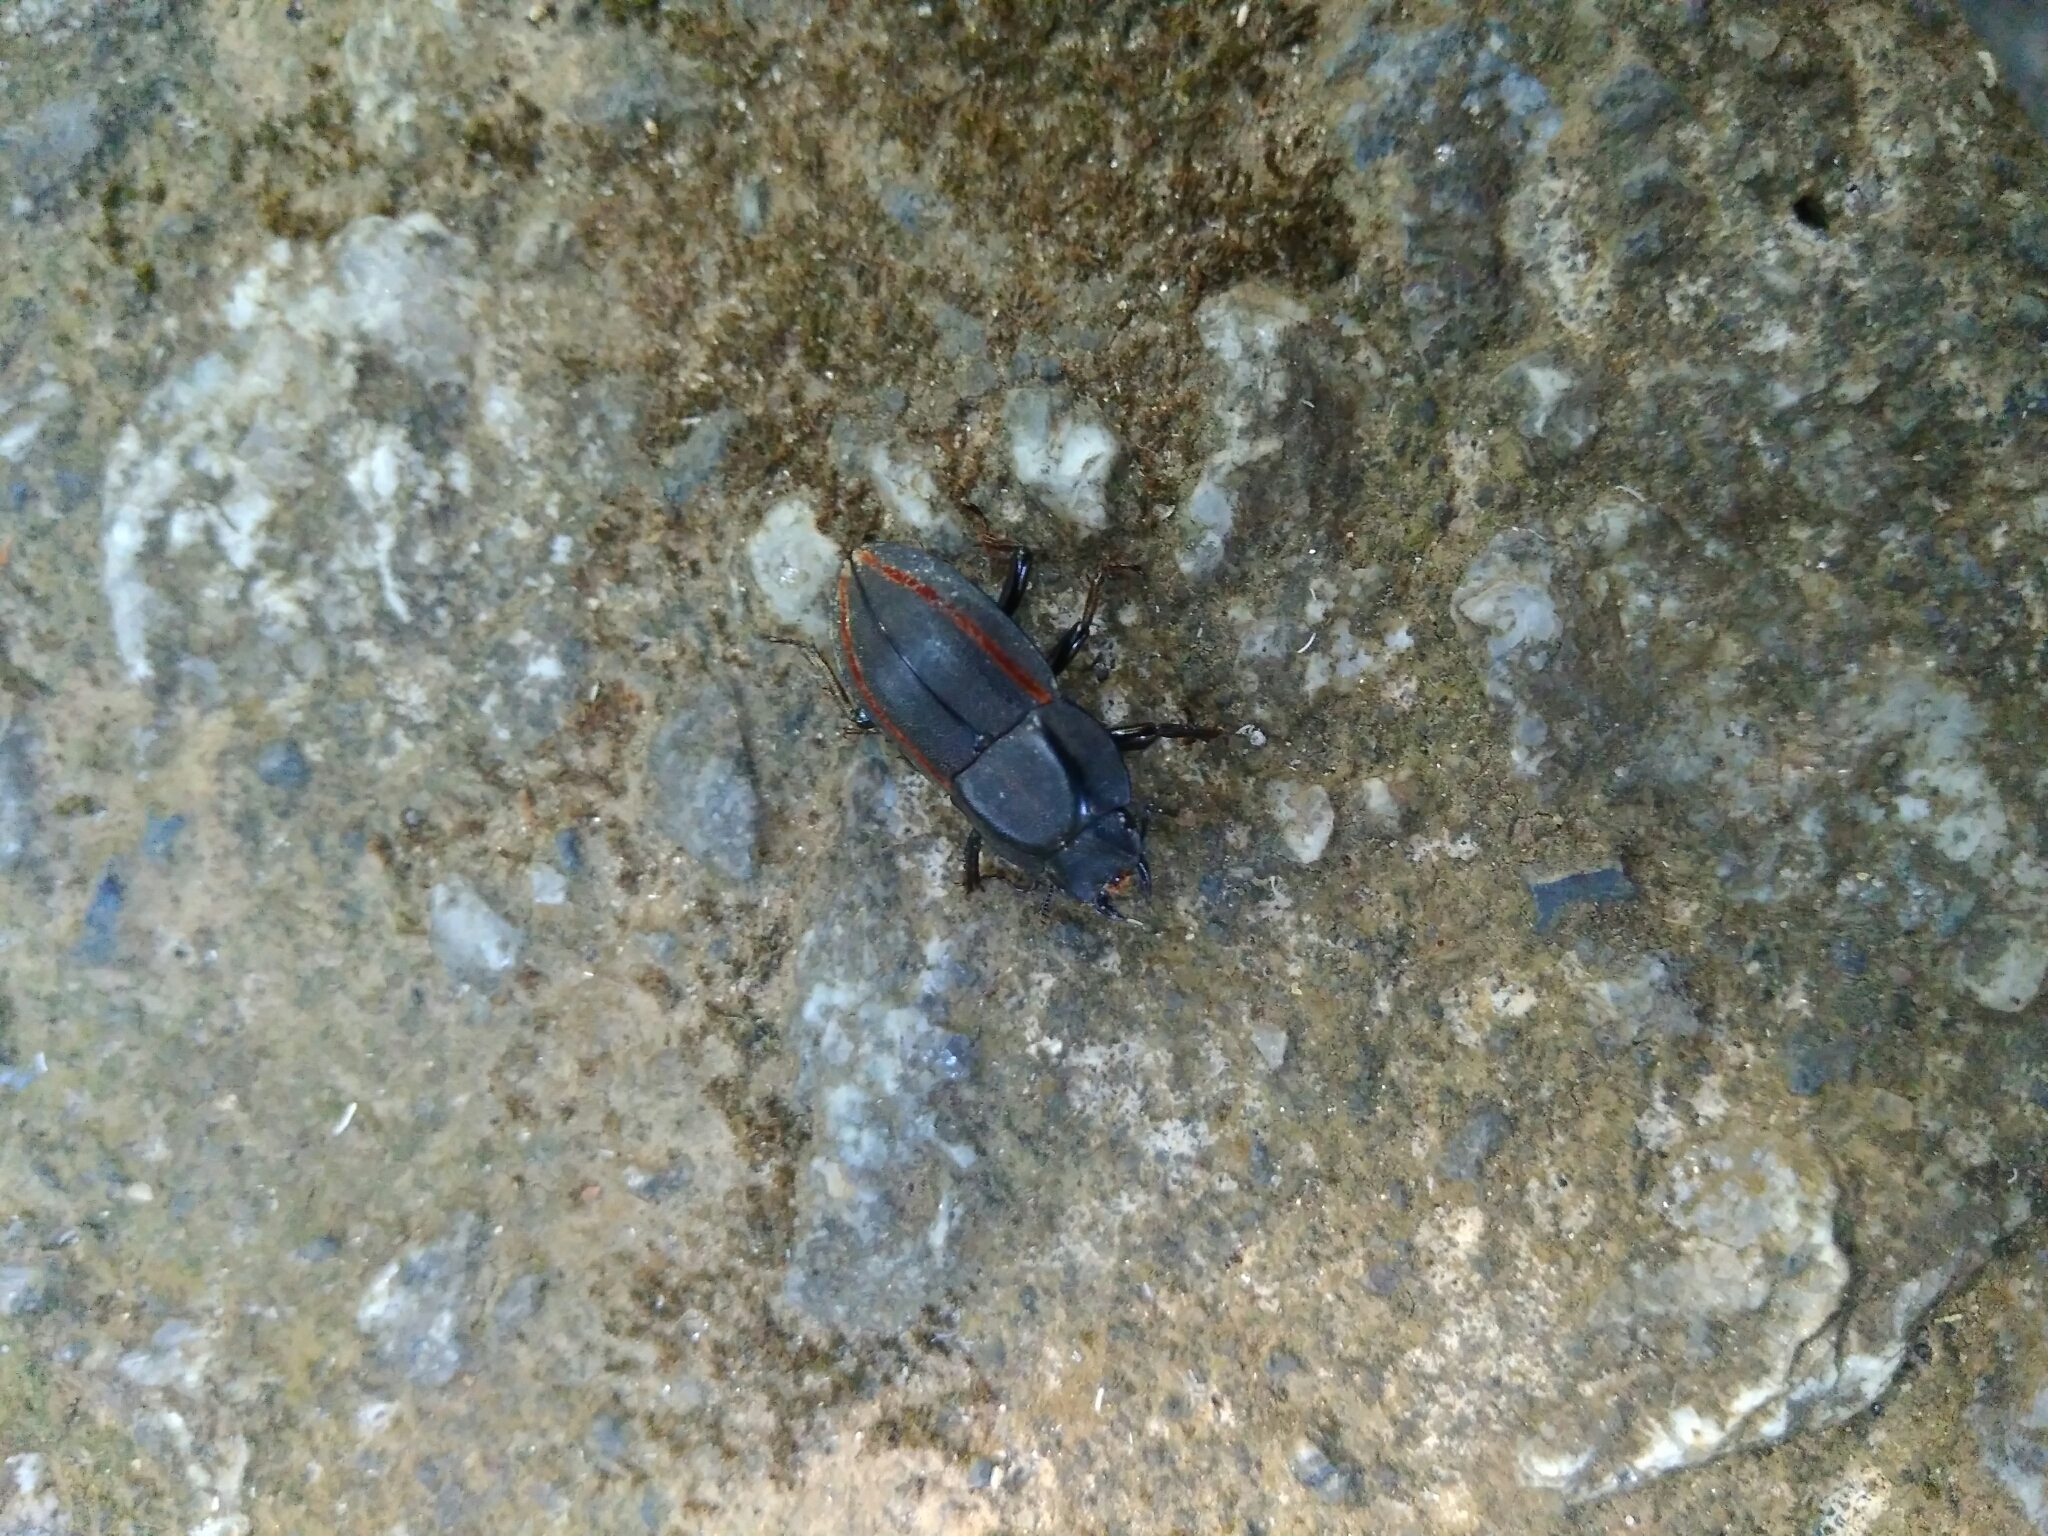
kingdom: Animalia
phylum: Arthropoda
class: Insecta
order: Coleoptera
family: Lucanidae
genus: Erichius
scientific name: Erichius vittatus
